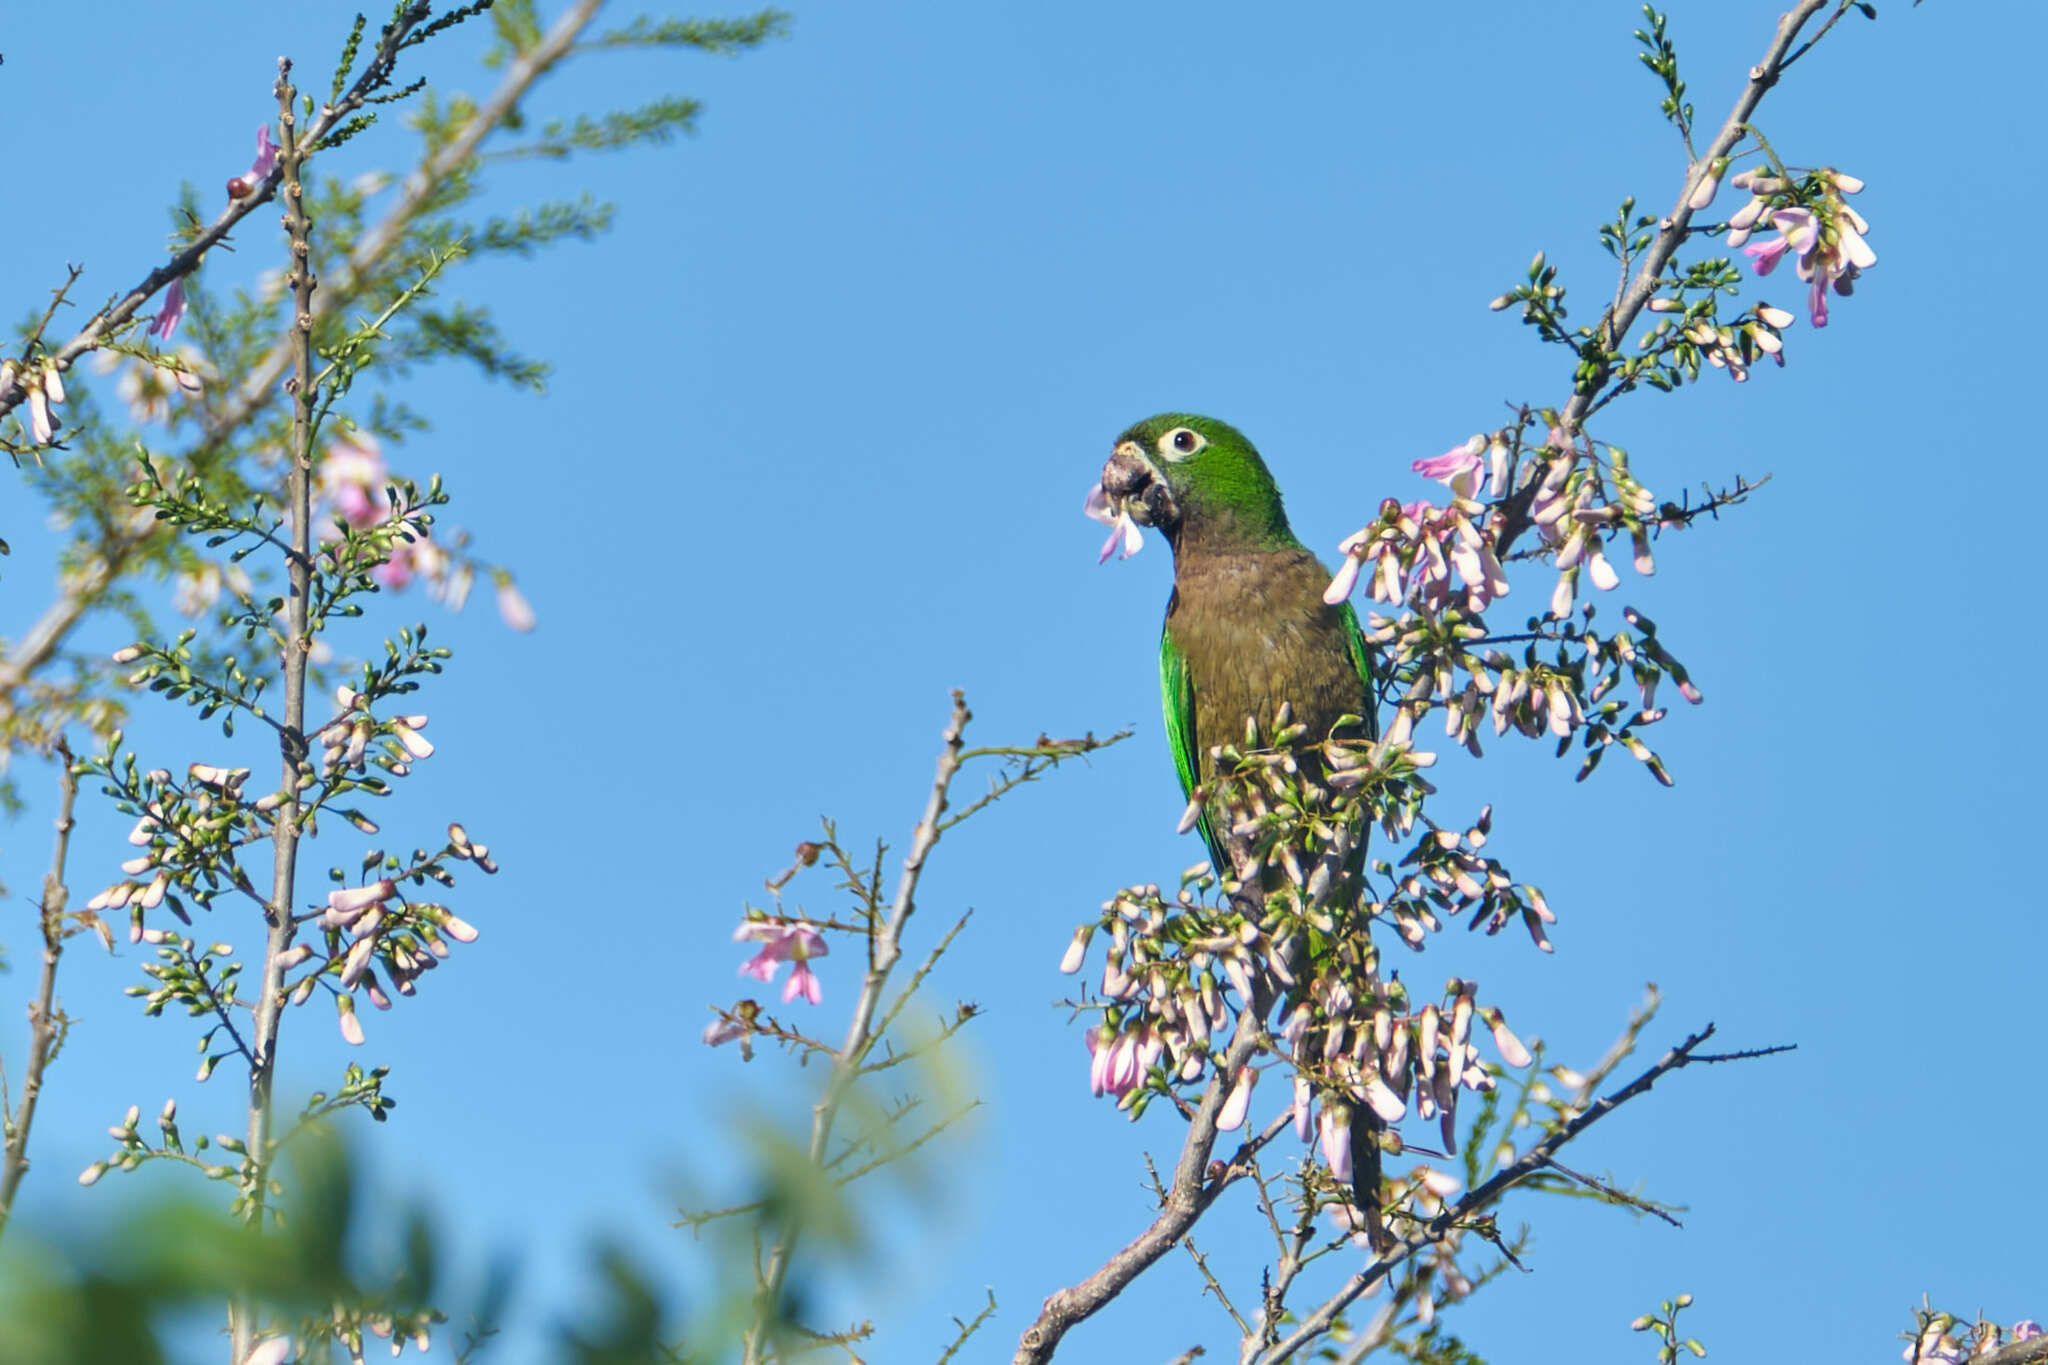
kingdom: Animalia
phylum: Chordata
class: Aves
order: Psittaciformes
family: Psittacidae
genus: Aratinga
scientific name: Aratinga nana
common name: Olive-throated parakeet
